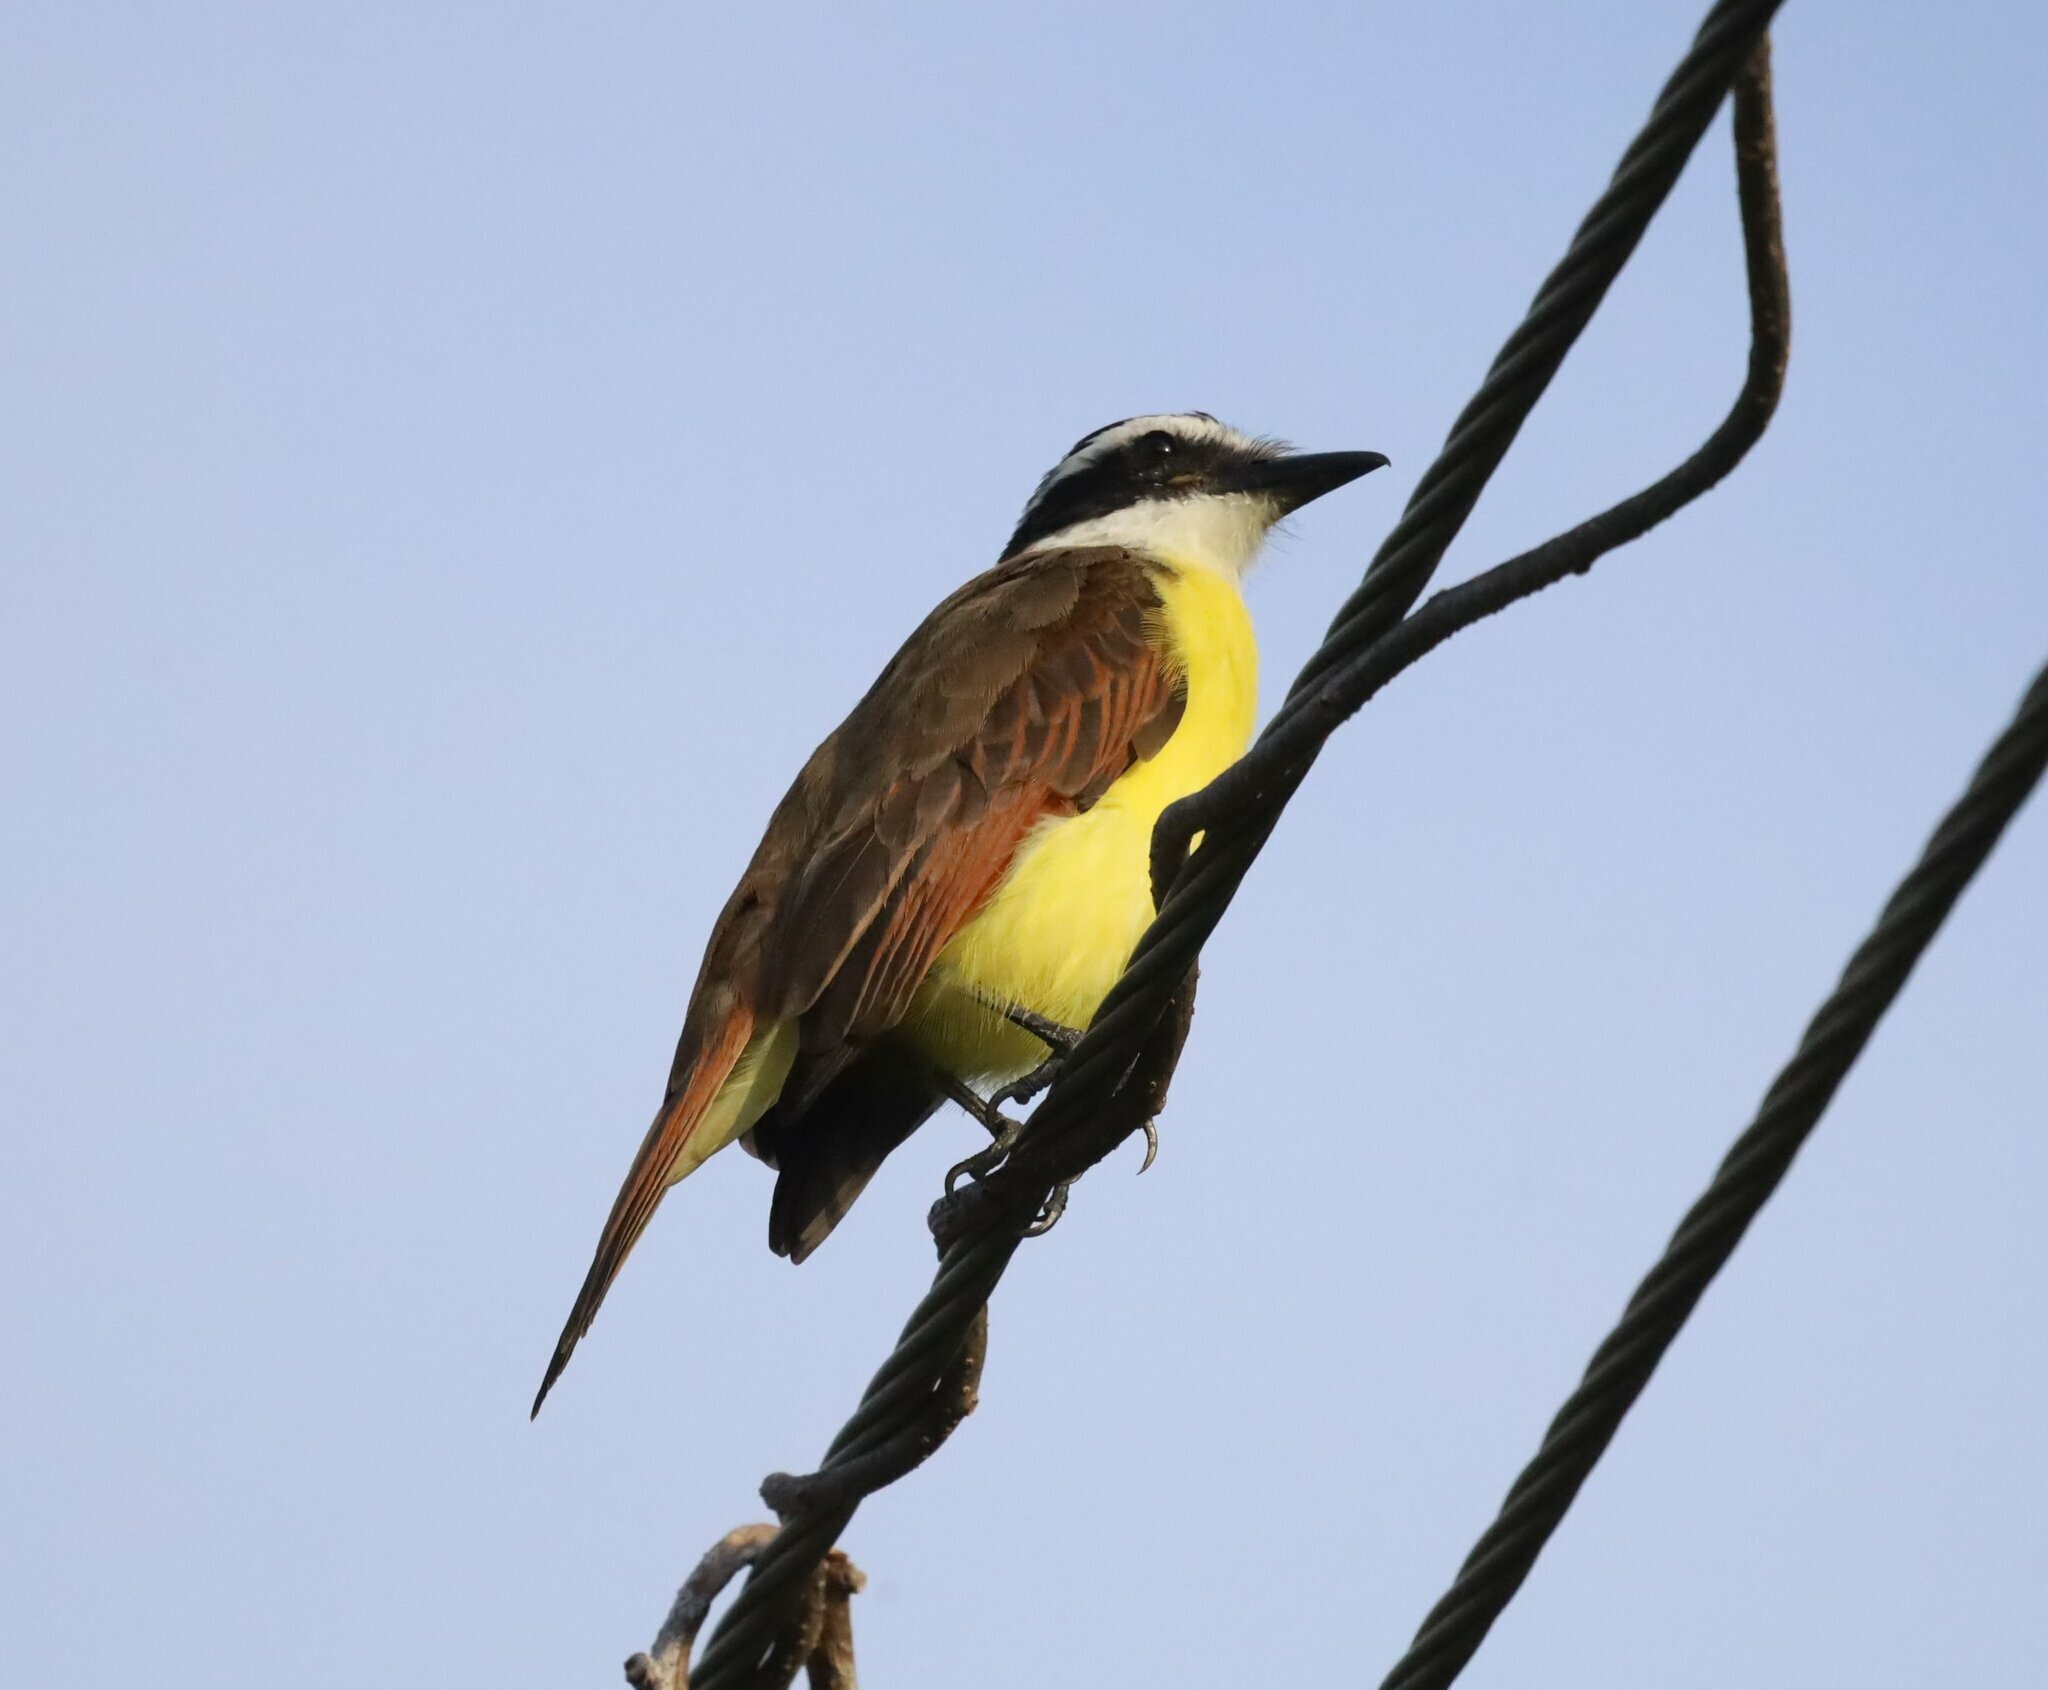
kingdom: Animalia
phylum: Chordata
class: Aves
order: Passeriformes
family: Tyrannidae
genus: Pitangus
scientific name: Pitangus sulphuratus
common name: Great kiskadee
